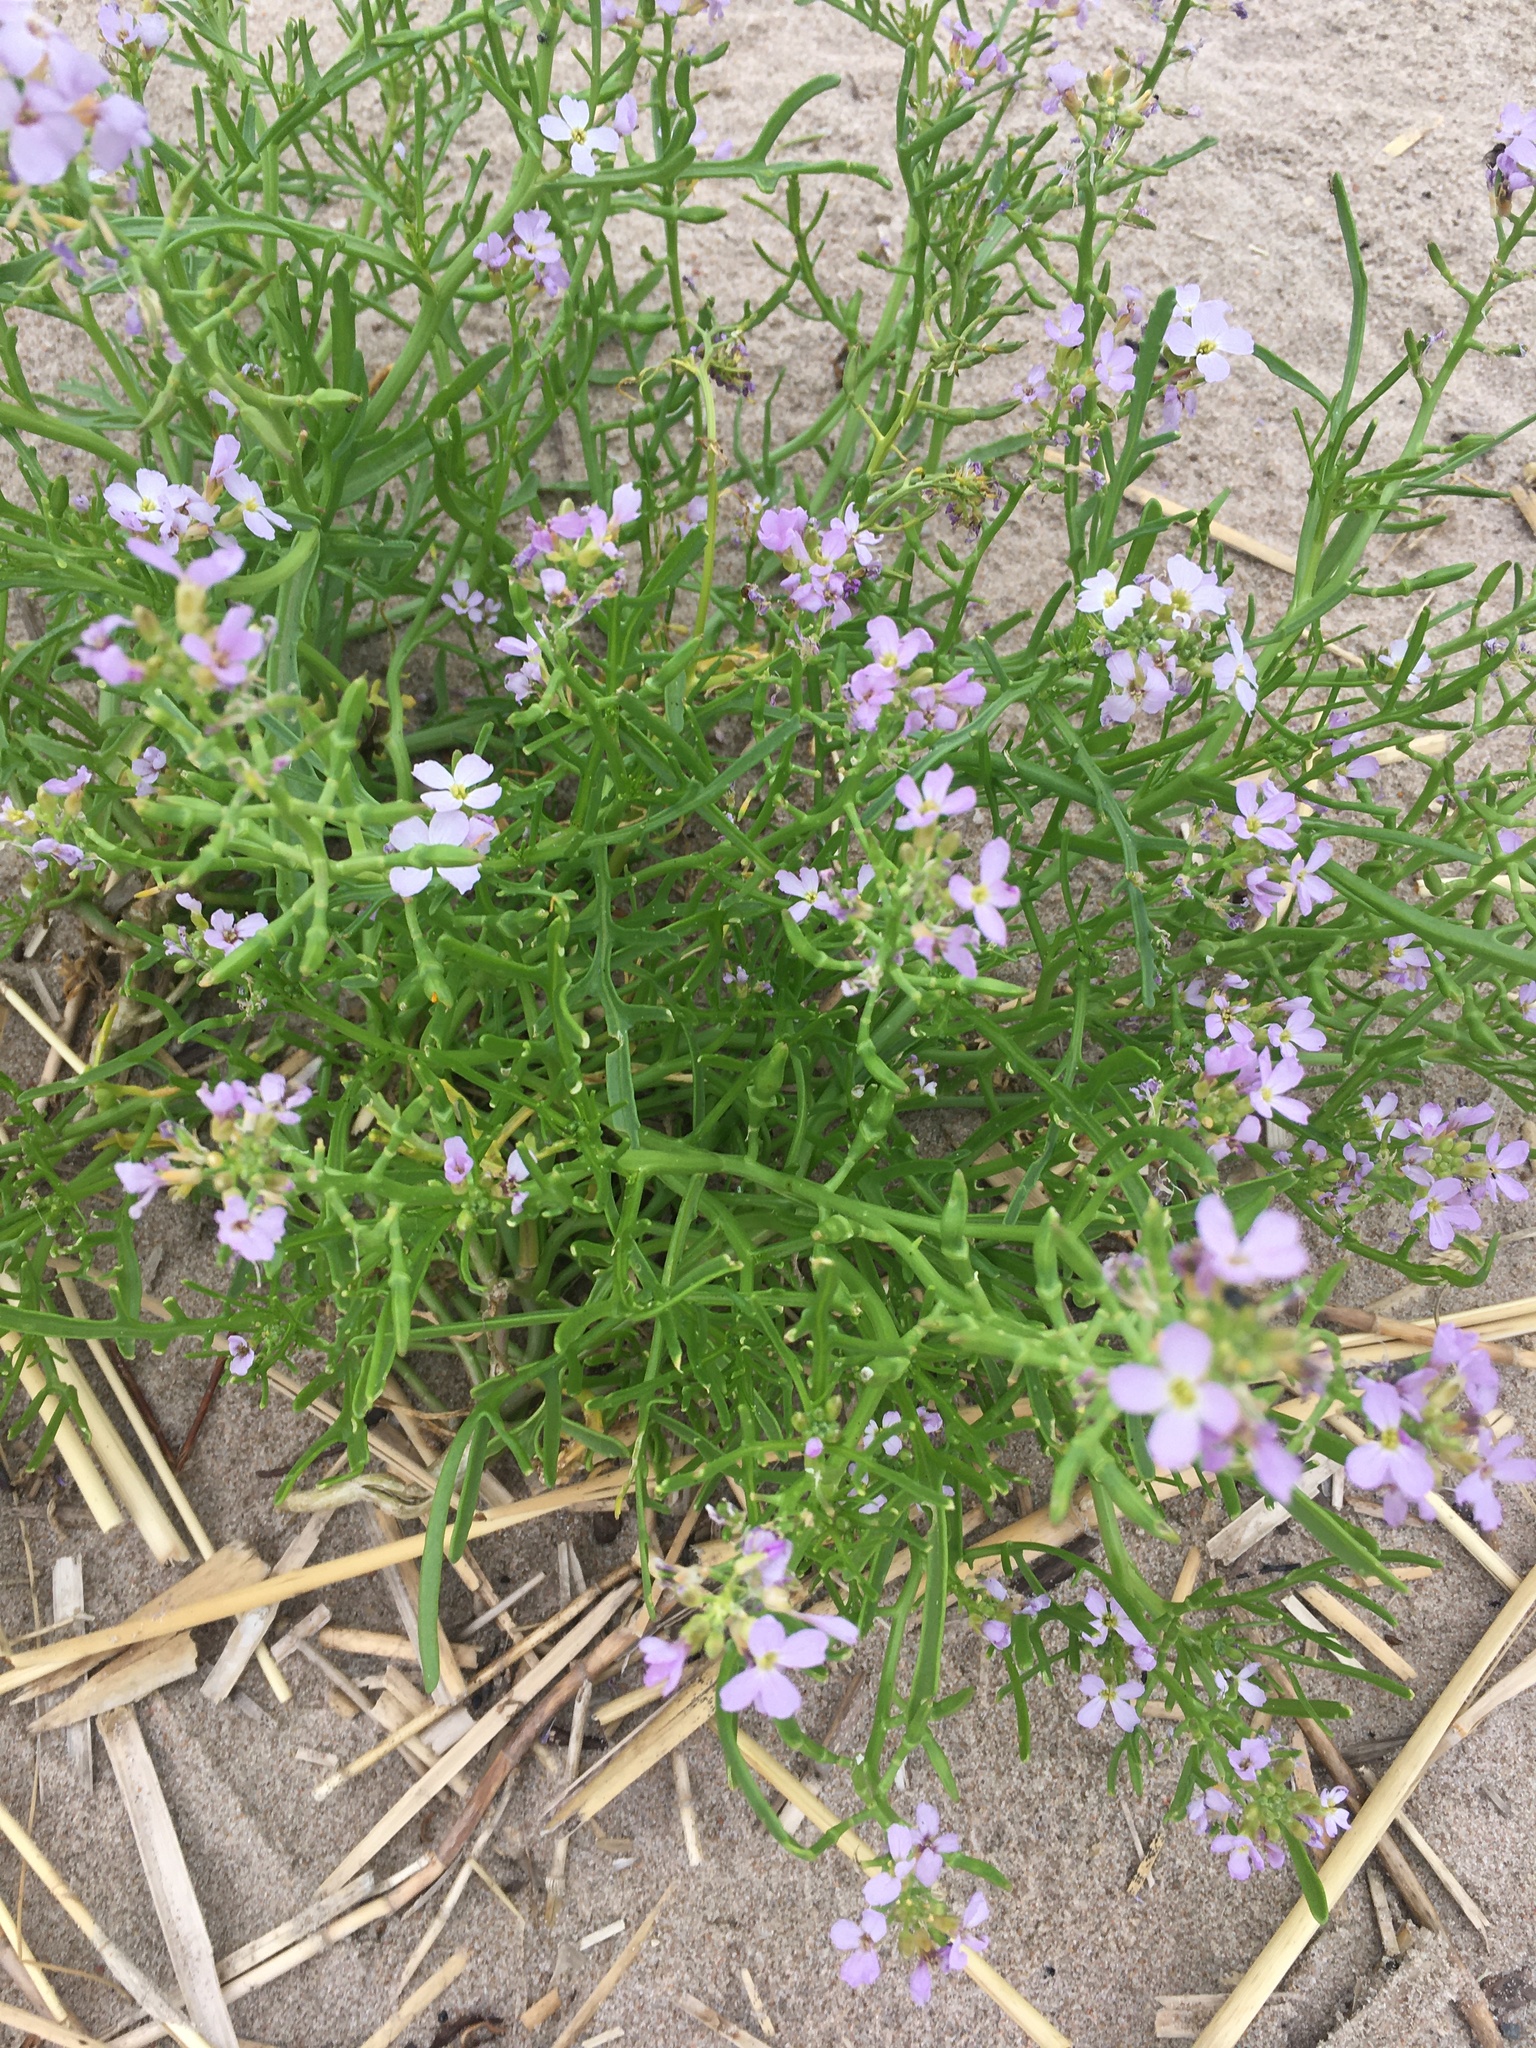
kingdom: Plantae
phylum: Tracheophyta
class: Magnoliopsida
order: Brassicales
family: Brassicaceae
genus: Cakile
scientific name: Cakile maritima
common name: Sea rocket
